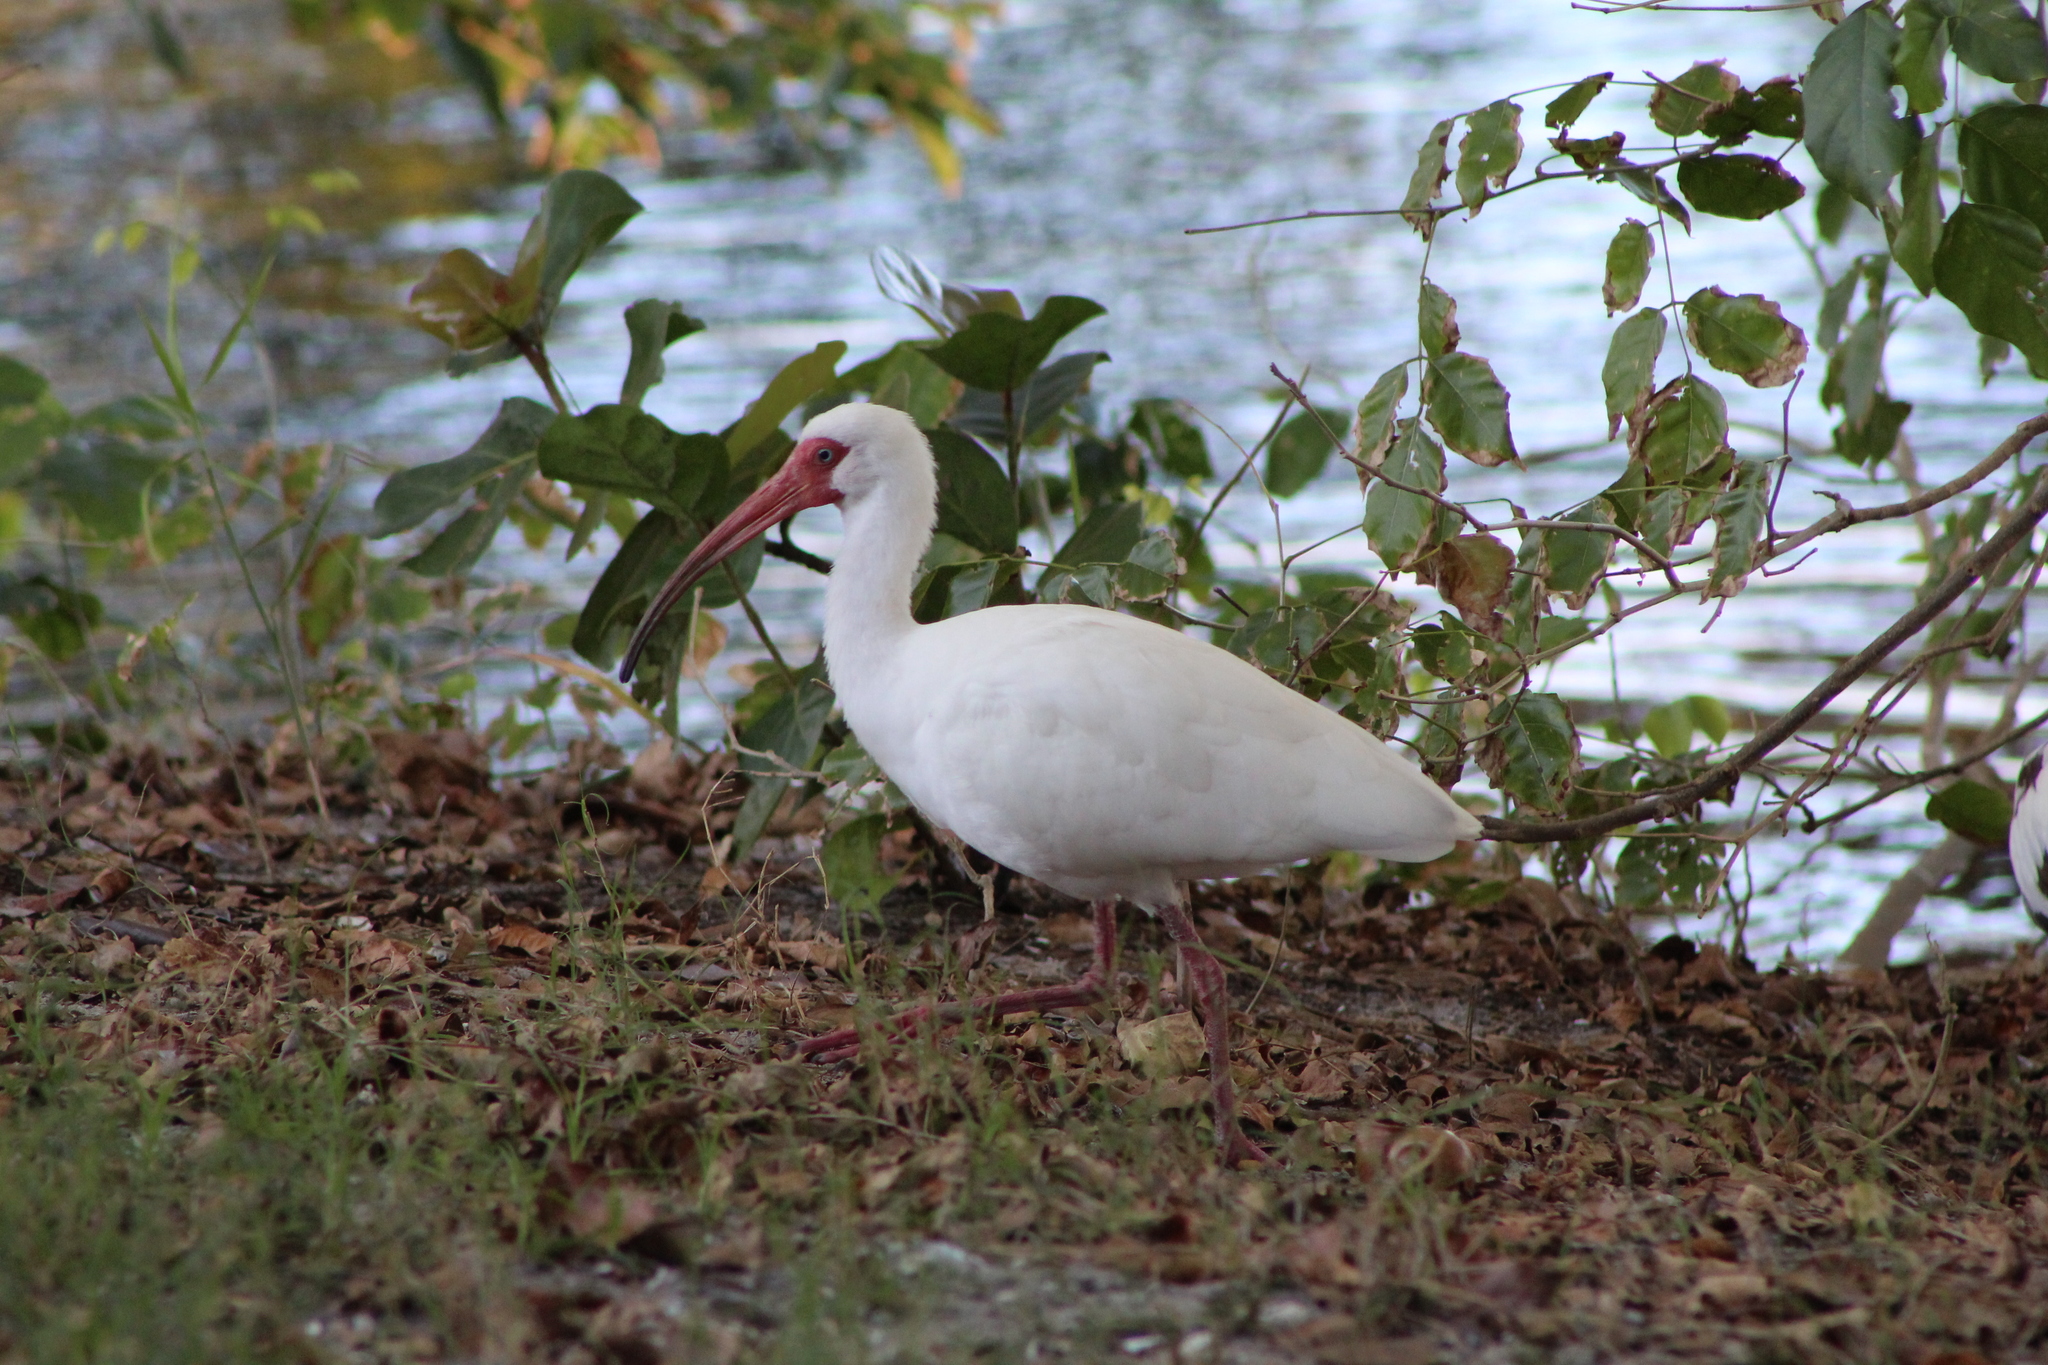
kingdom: Animalia
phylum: Chordata
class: Aves
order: Pelecaniformes
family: Threskiornithidae
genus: Eudocimus
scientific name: Eudocimus albus
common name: White ibis
